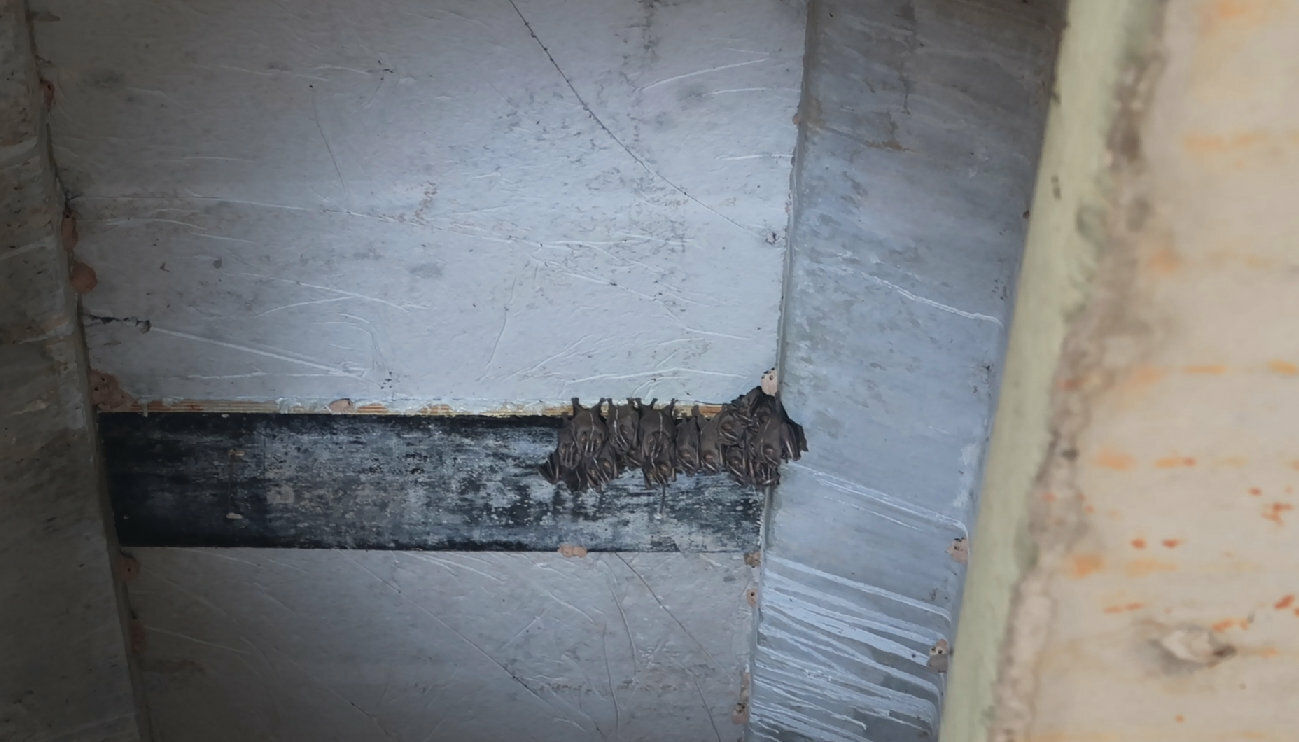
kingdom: Animalia
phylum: Chordata
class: Mammalia
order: Chiroptera
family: Phyllostomidae
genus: Platyrrhinus
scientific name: Platyrrhinus lineatus
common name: White-lined broad-nosed bat
